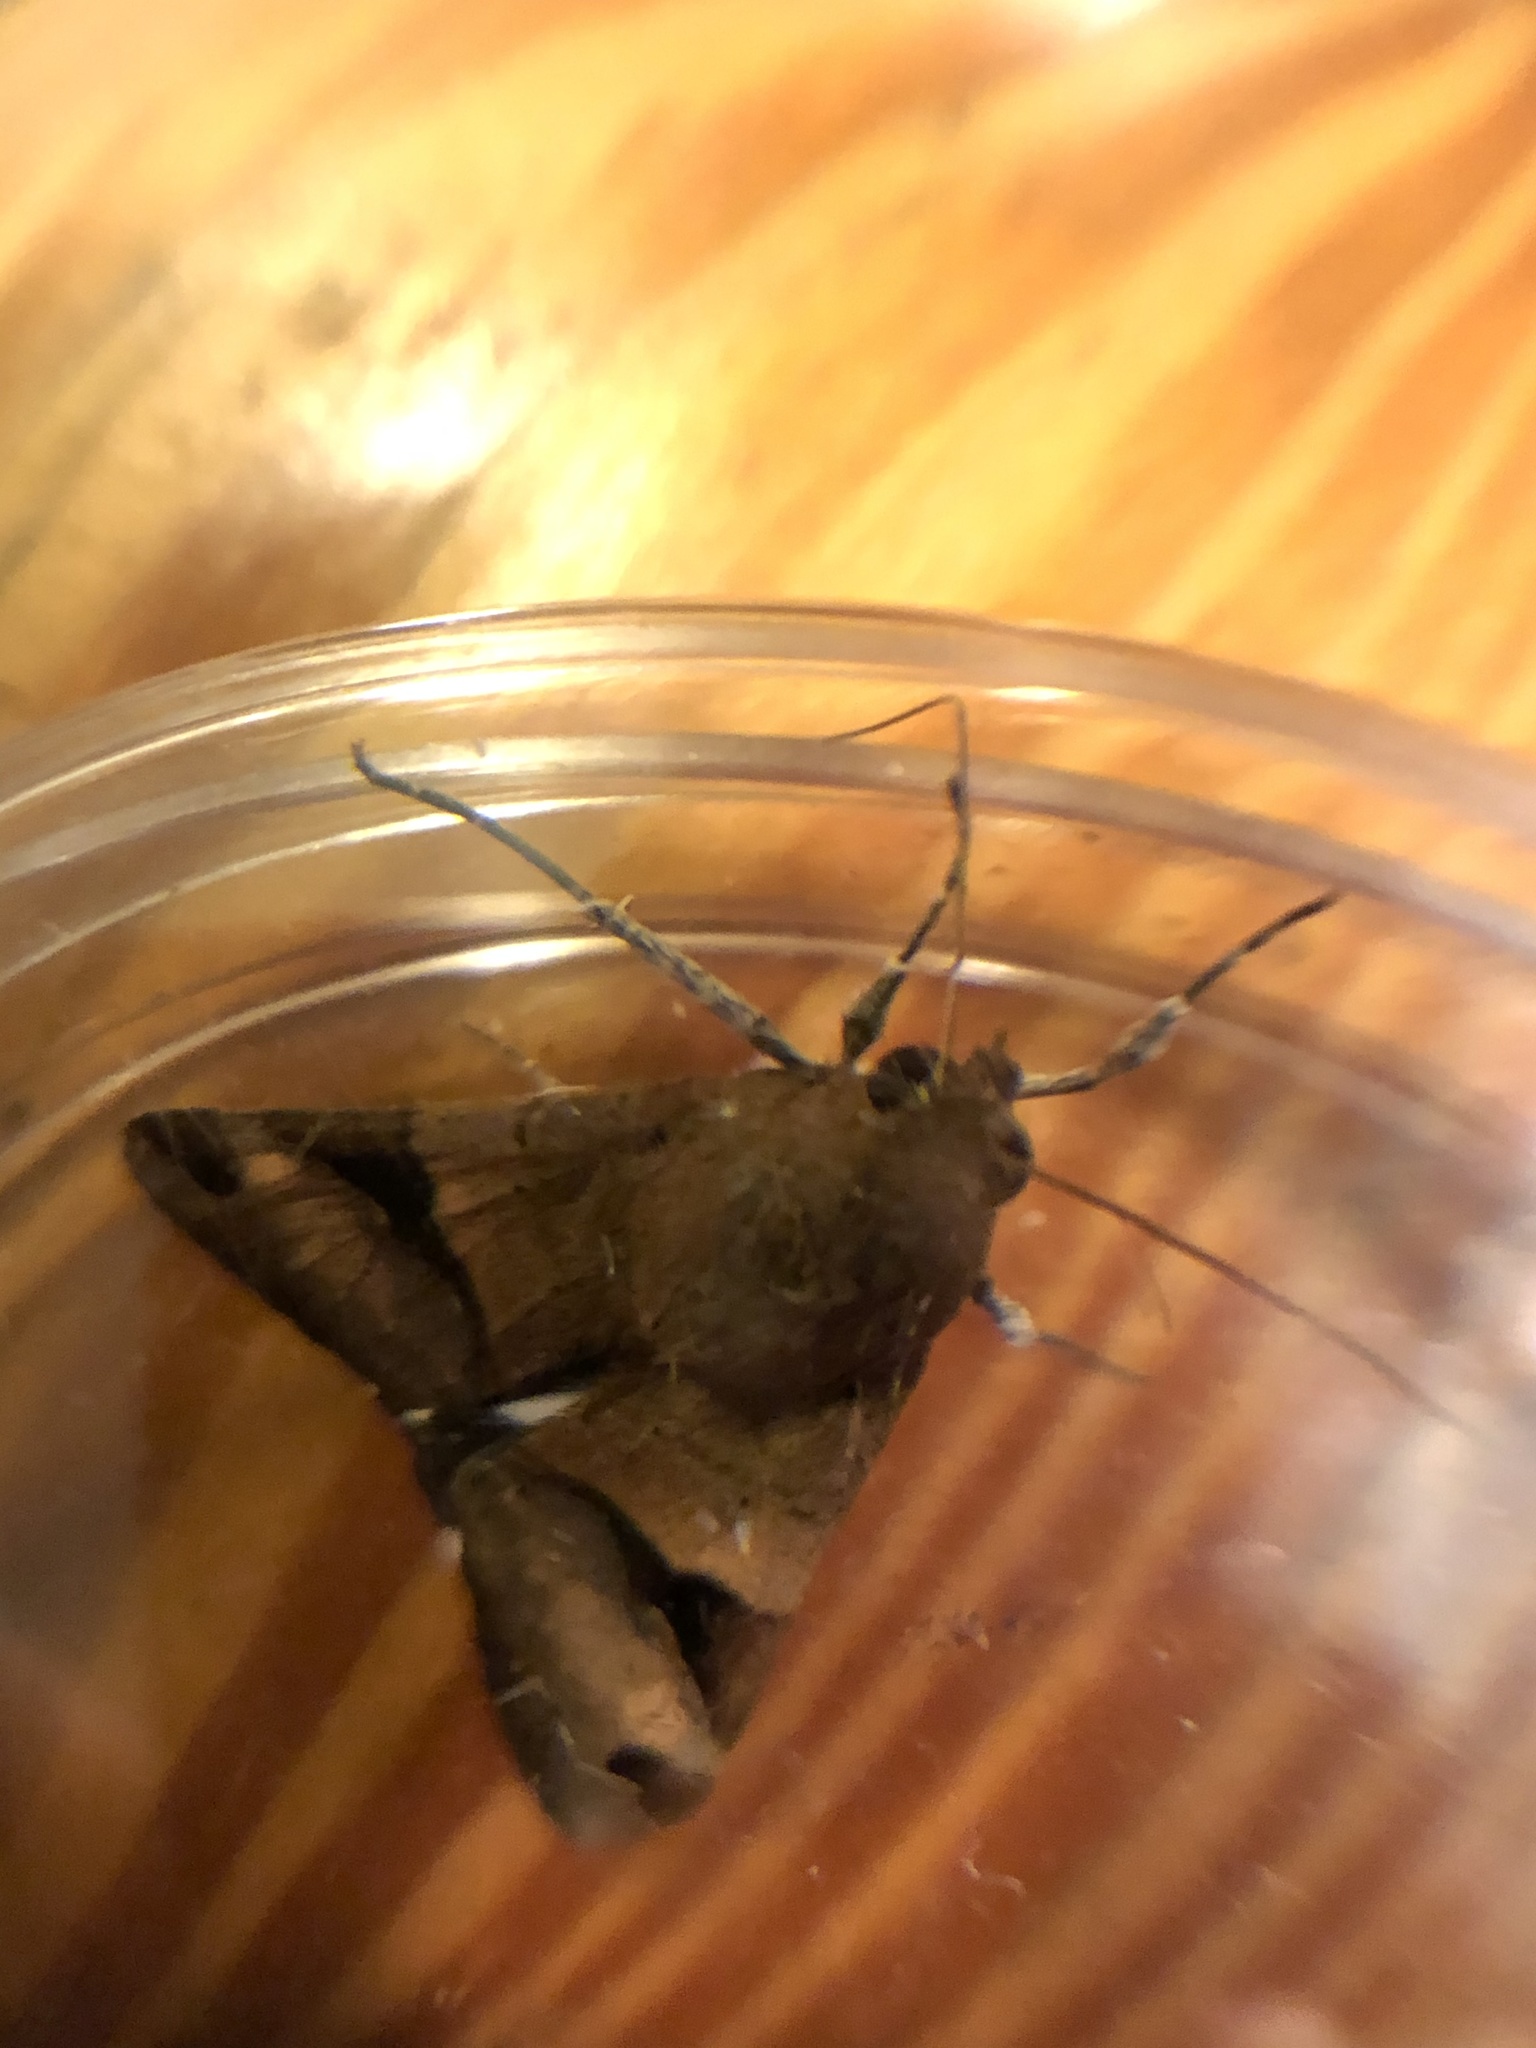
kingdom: Animalia
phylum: Arthropoda
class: Insecta
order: Lepidoptera
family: Erebidae
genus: Melipotis
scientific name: Melipotis fasciolaris
